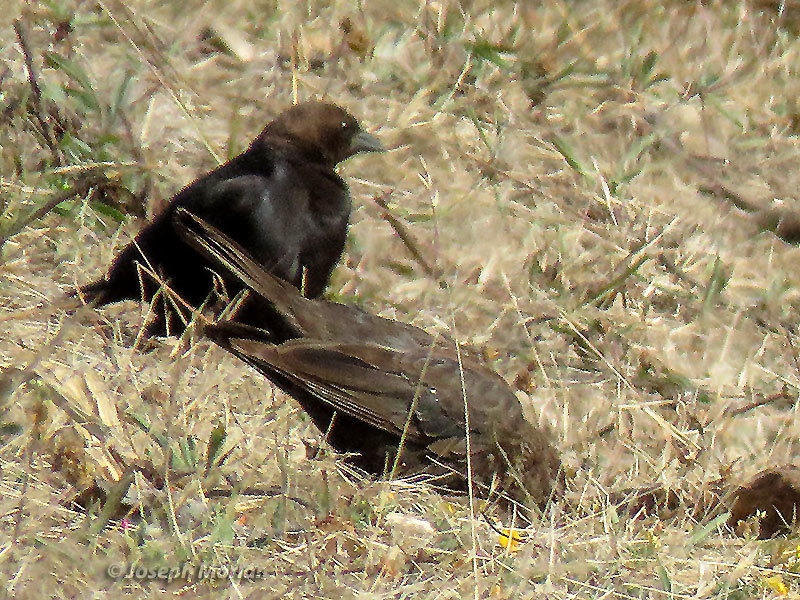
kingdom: Animalia
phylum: Chordata
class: Aves
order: Passeriformes
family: Icteridae
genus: Molothrus
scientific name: Molothrus ater
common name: Brown-headed cowbird
